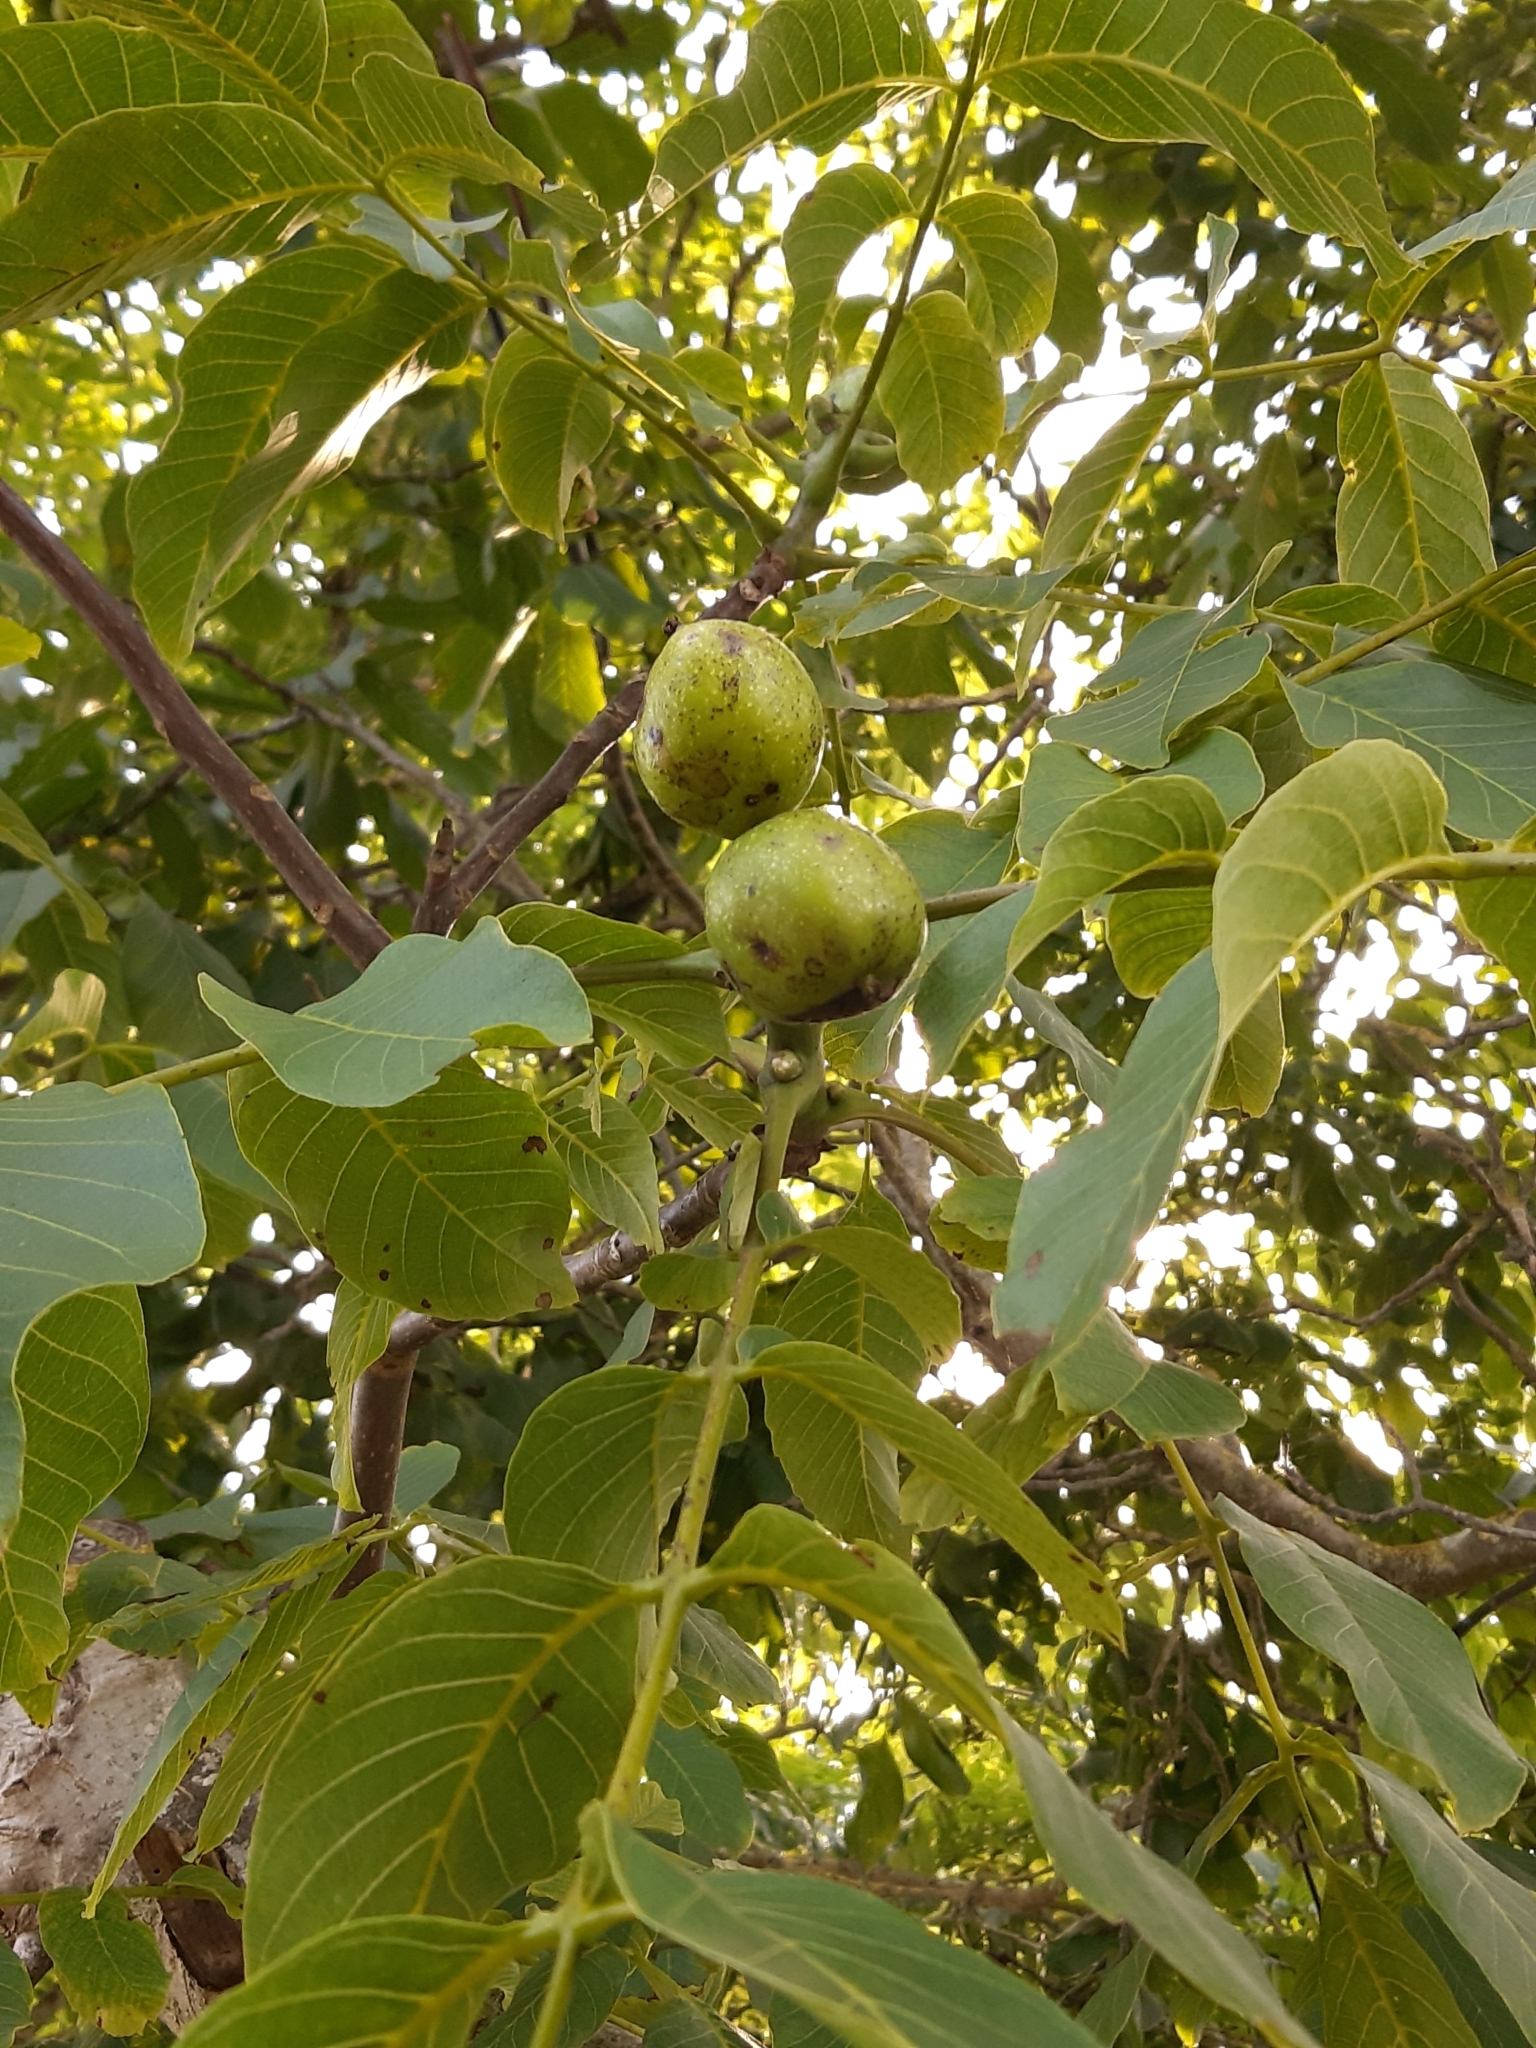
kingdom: Plantae
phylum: Tracheophyta
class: Magnoliopsida
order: Fagales
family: Juglandaceae
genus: Juglans
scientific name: Juglans regia
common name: Walnut
